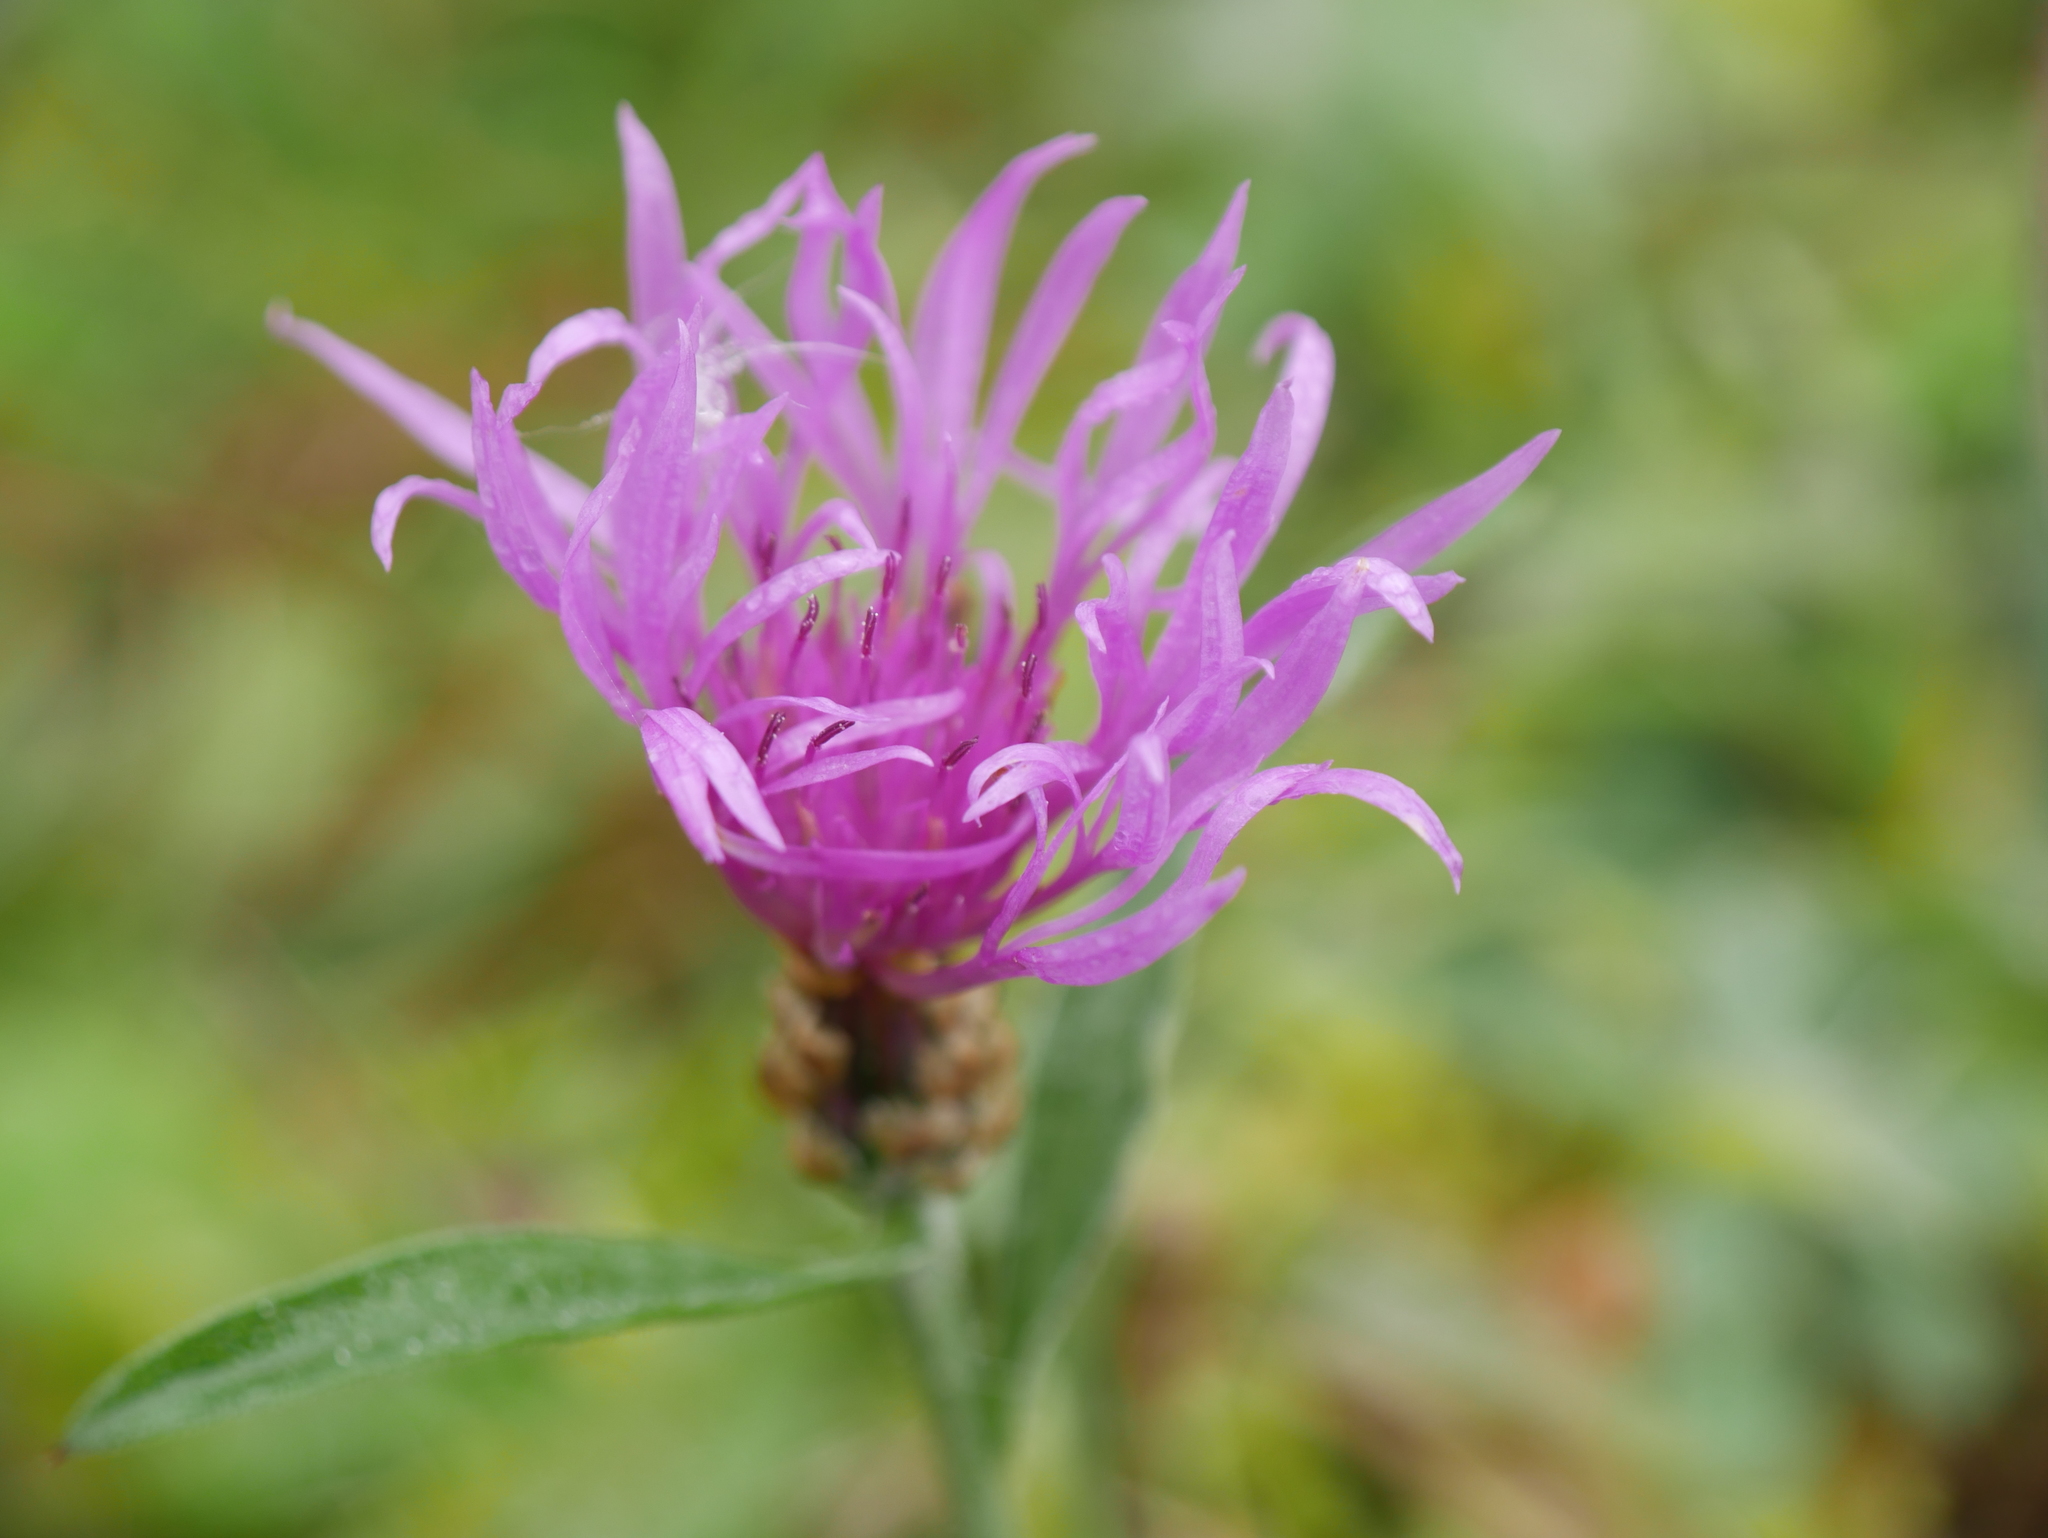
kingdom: Plantae
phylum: Tracheophyta
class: Magnoliopsida
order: Asterales
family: Asteraceae
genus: Centaurea
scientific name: Centaurea jacea
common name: Brown knapweed
